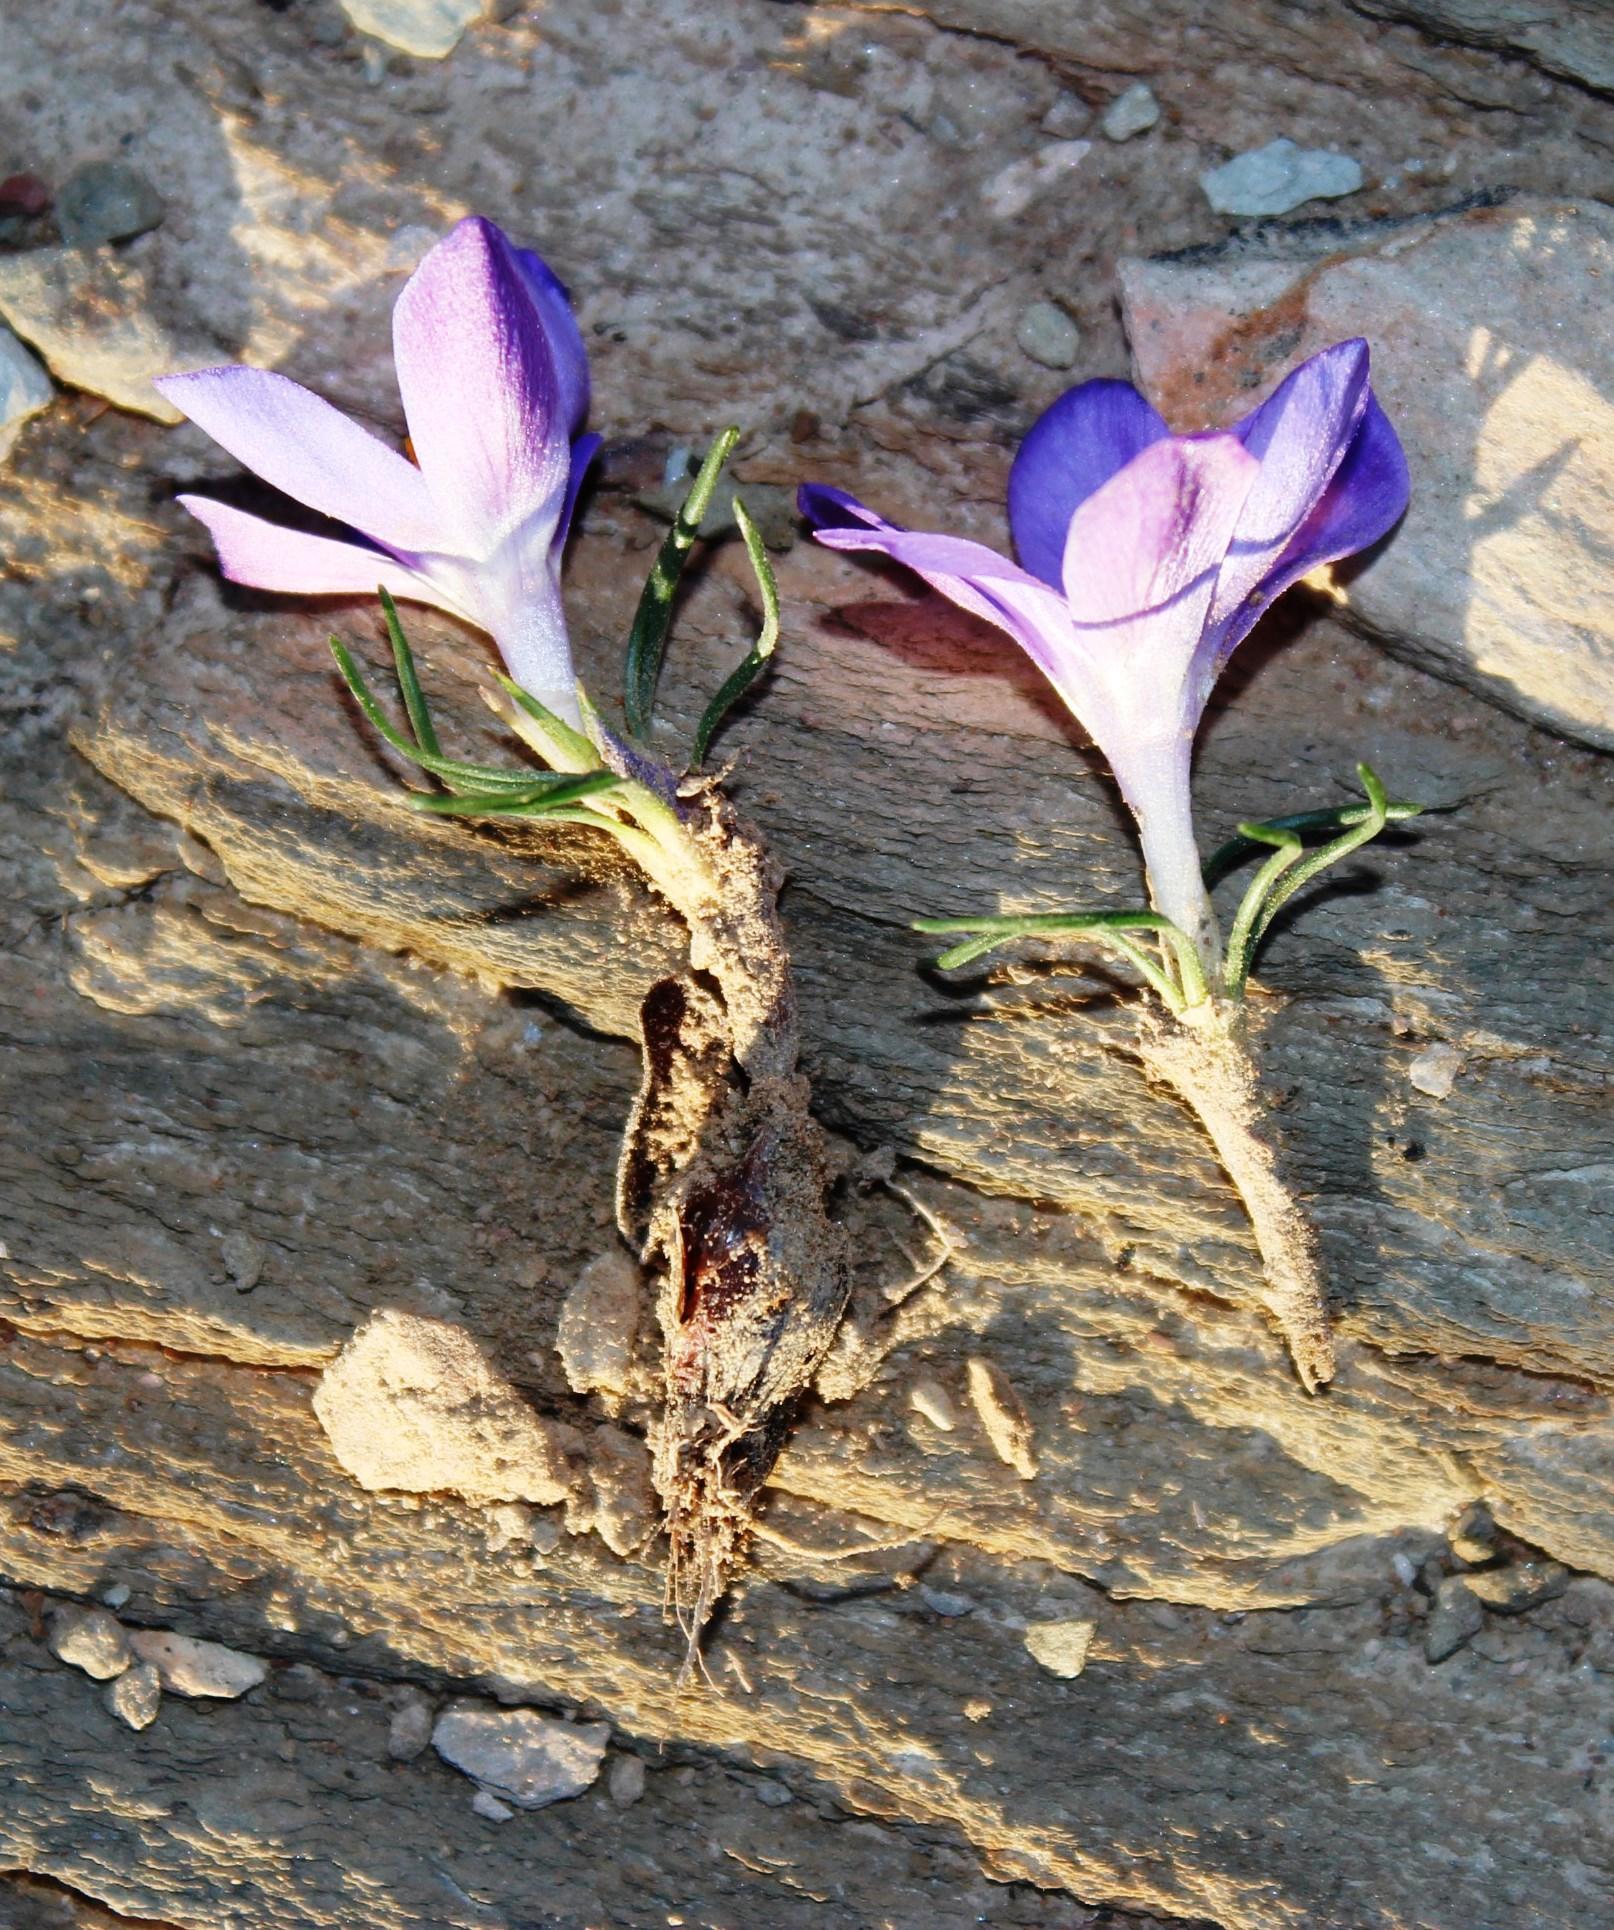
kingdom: Plantae
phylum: Tracheophyta
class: Liliopsida
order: Asparagales
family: Iridaceae
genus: Syringodea
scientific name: Syringodea longituba
